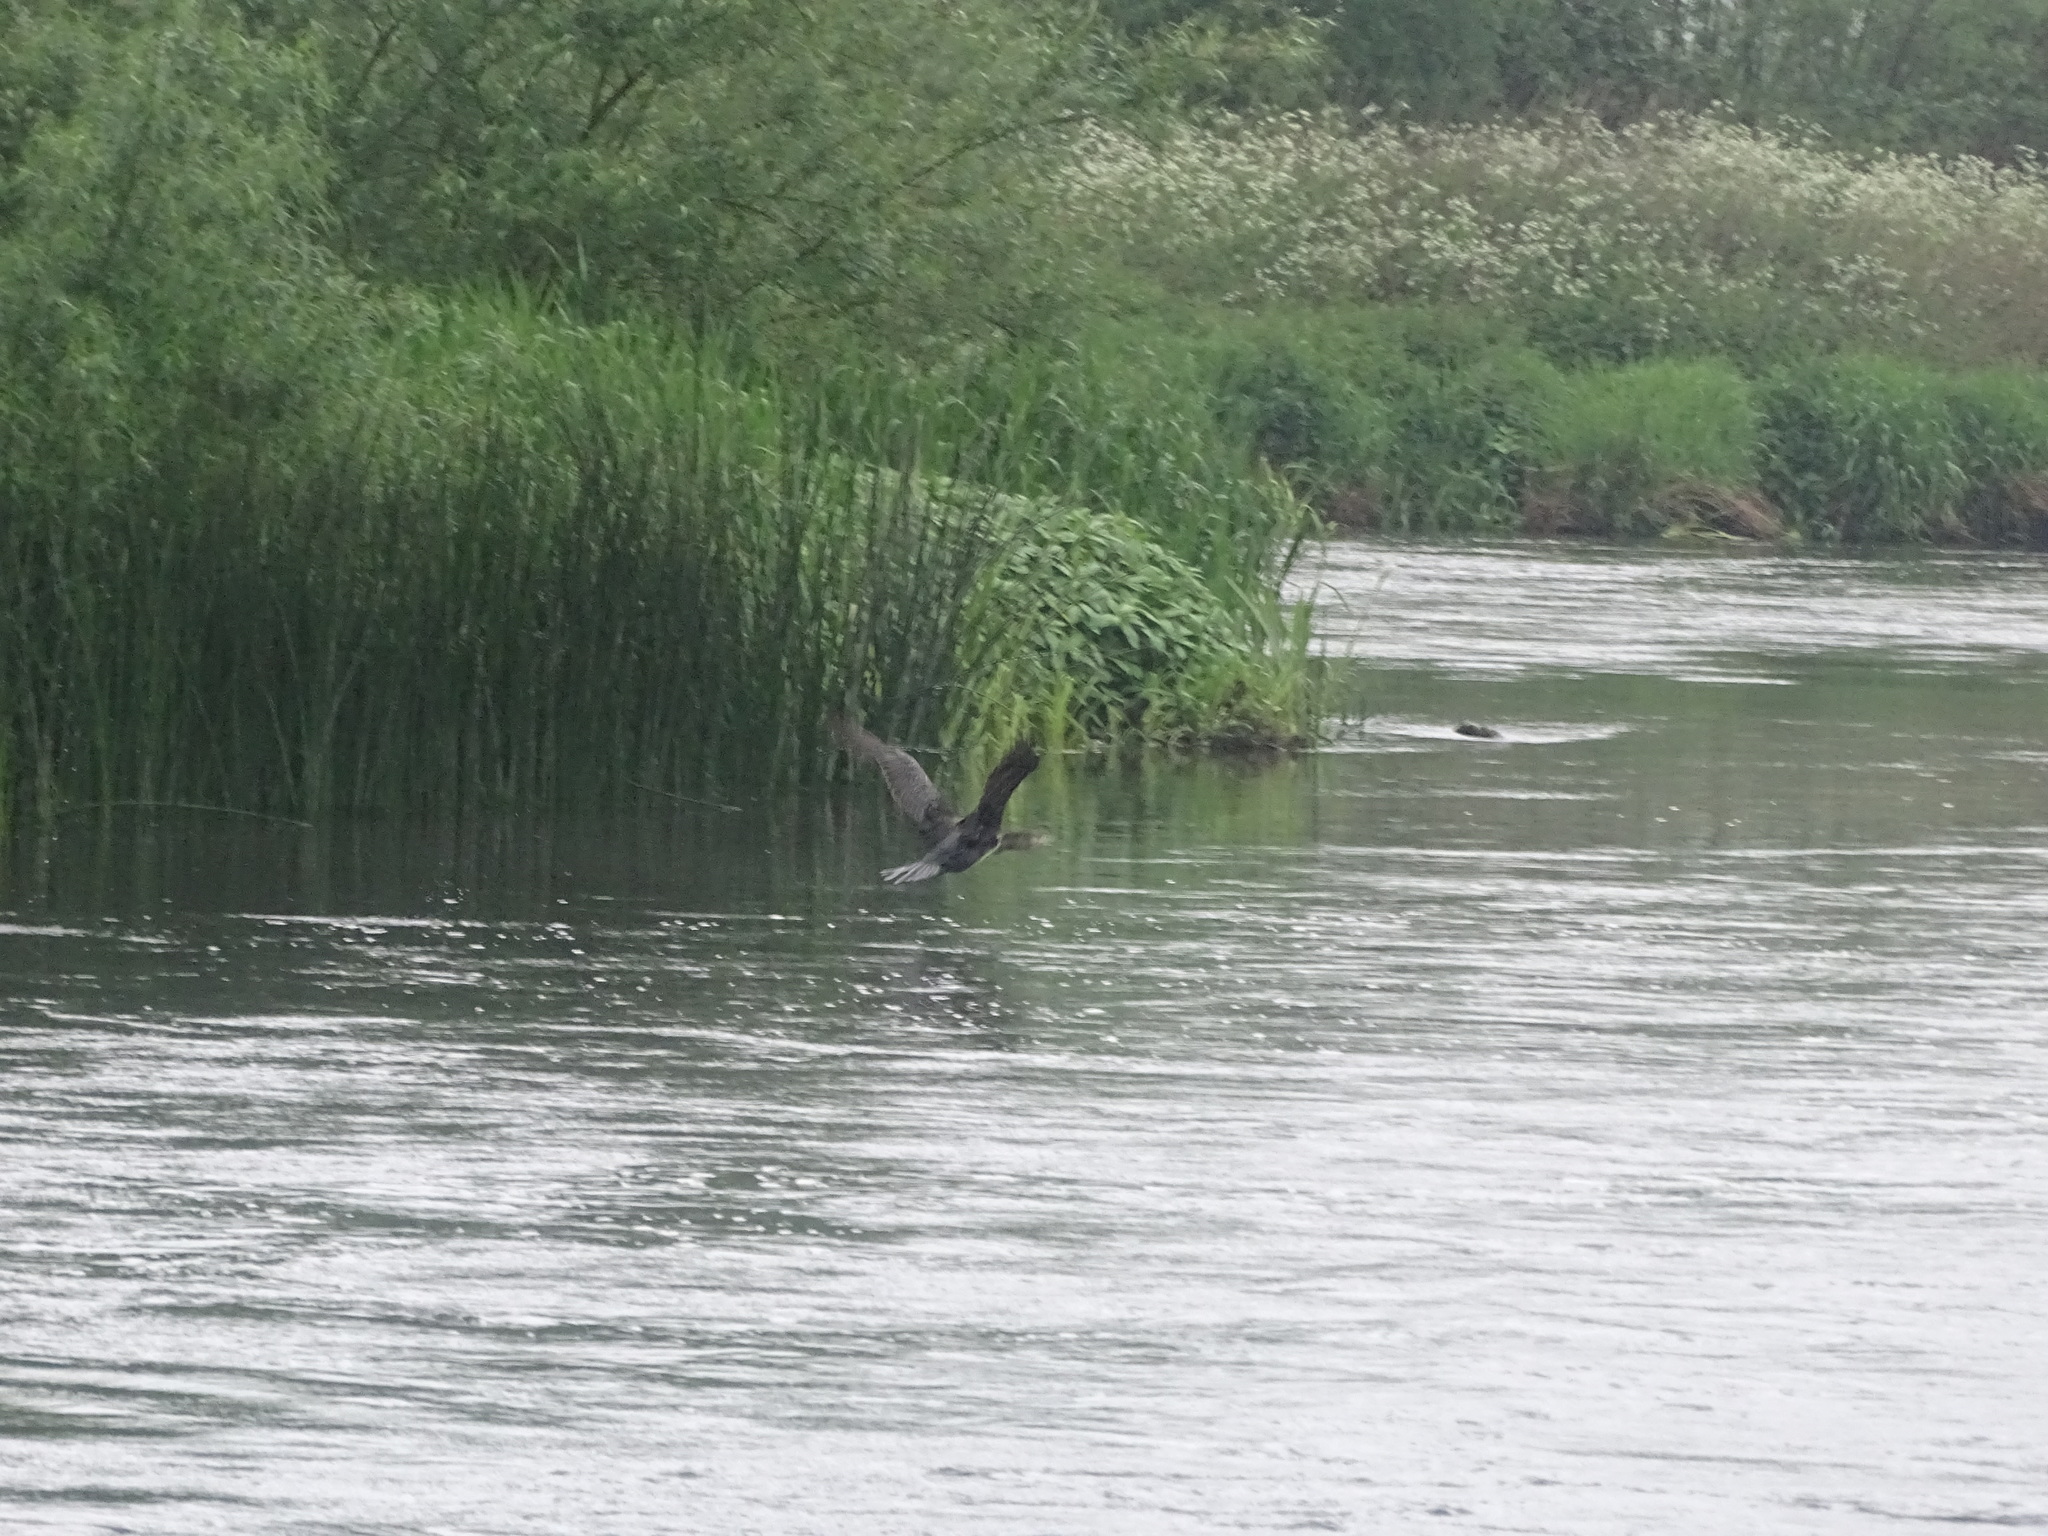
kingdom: Animalia
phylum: Chordata
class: Aves
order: Suliformes
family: Phalacrocoracidae
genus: Phalacrocorax
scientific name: Phalacrocorax carbo
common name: Great cormorant
